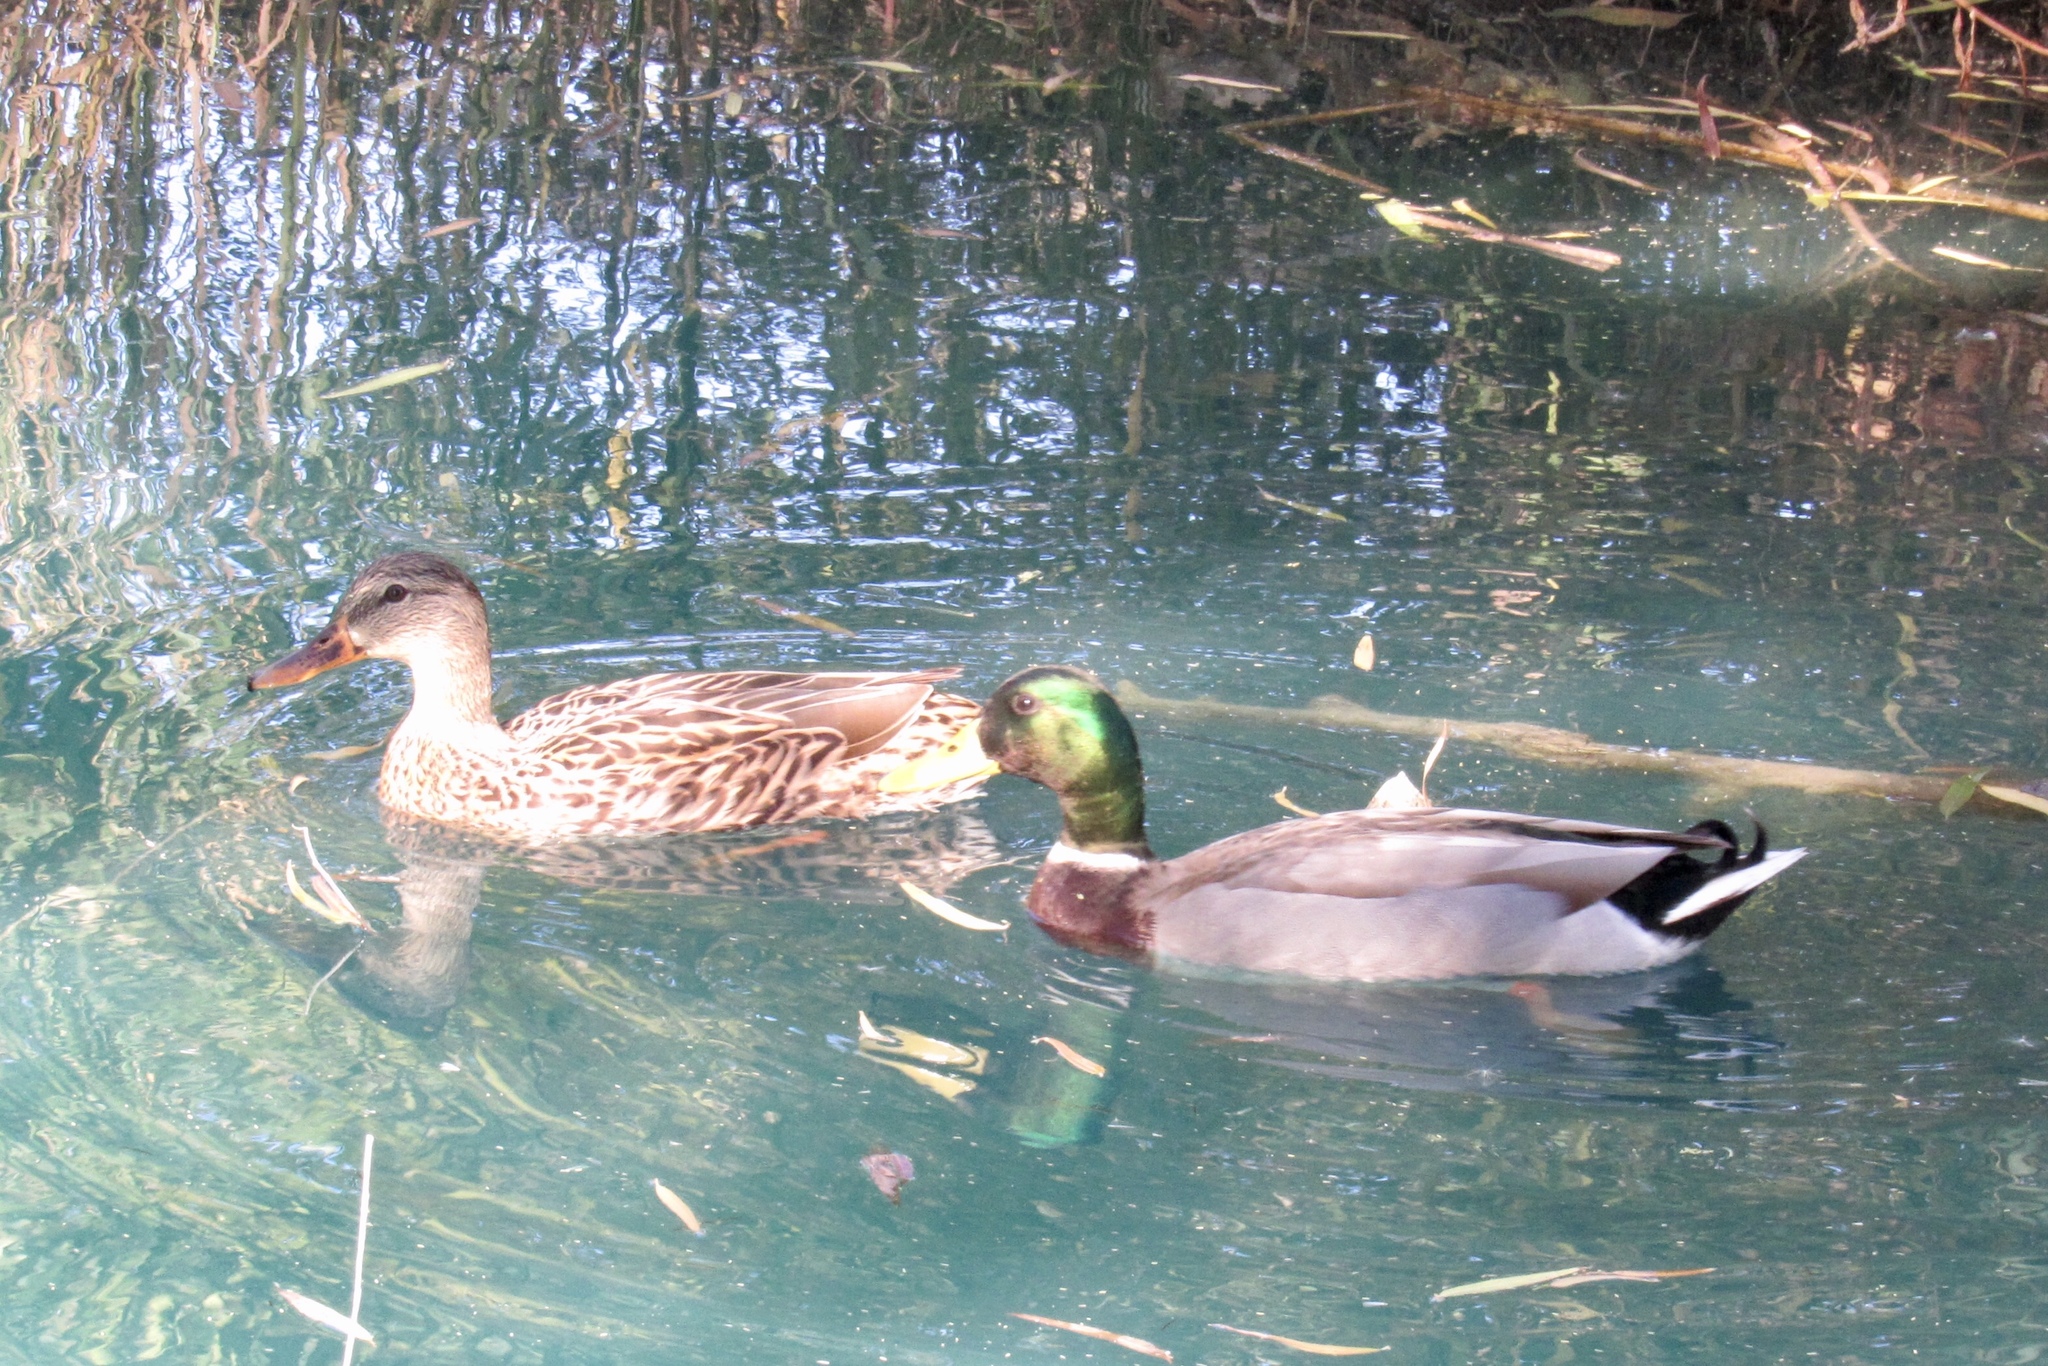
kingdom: Animalia
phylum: Chordata
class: Aves
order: Anseriformes
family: Anatidae
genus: Anas
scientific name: Anas platyrhynchos
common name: Mallard
